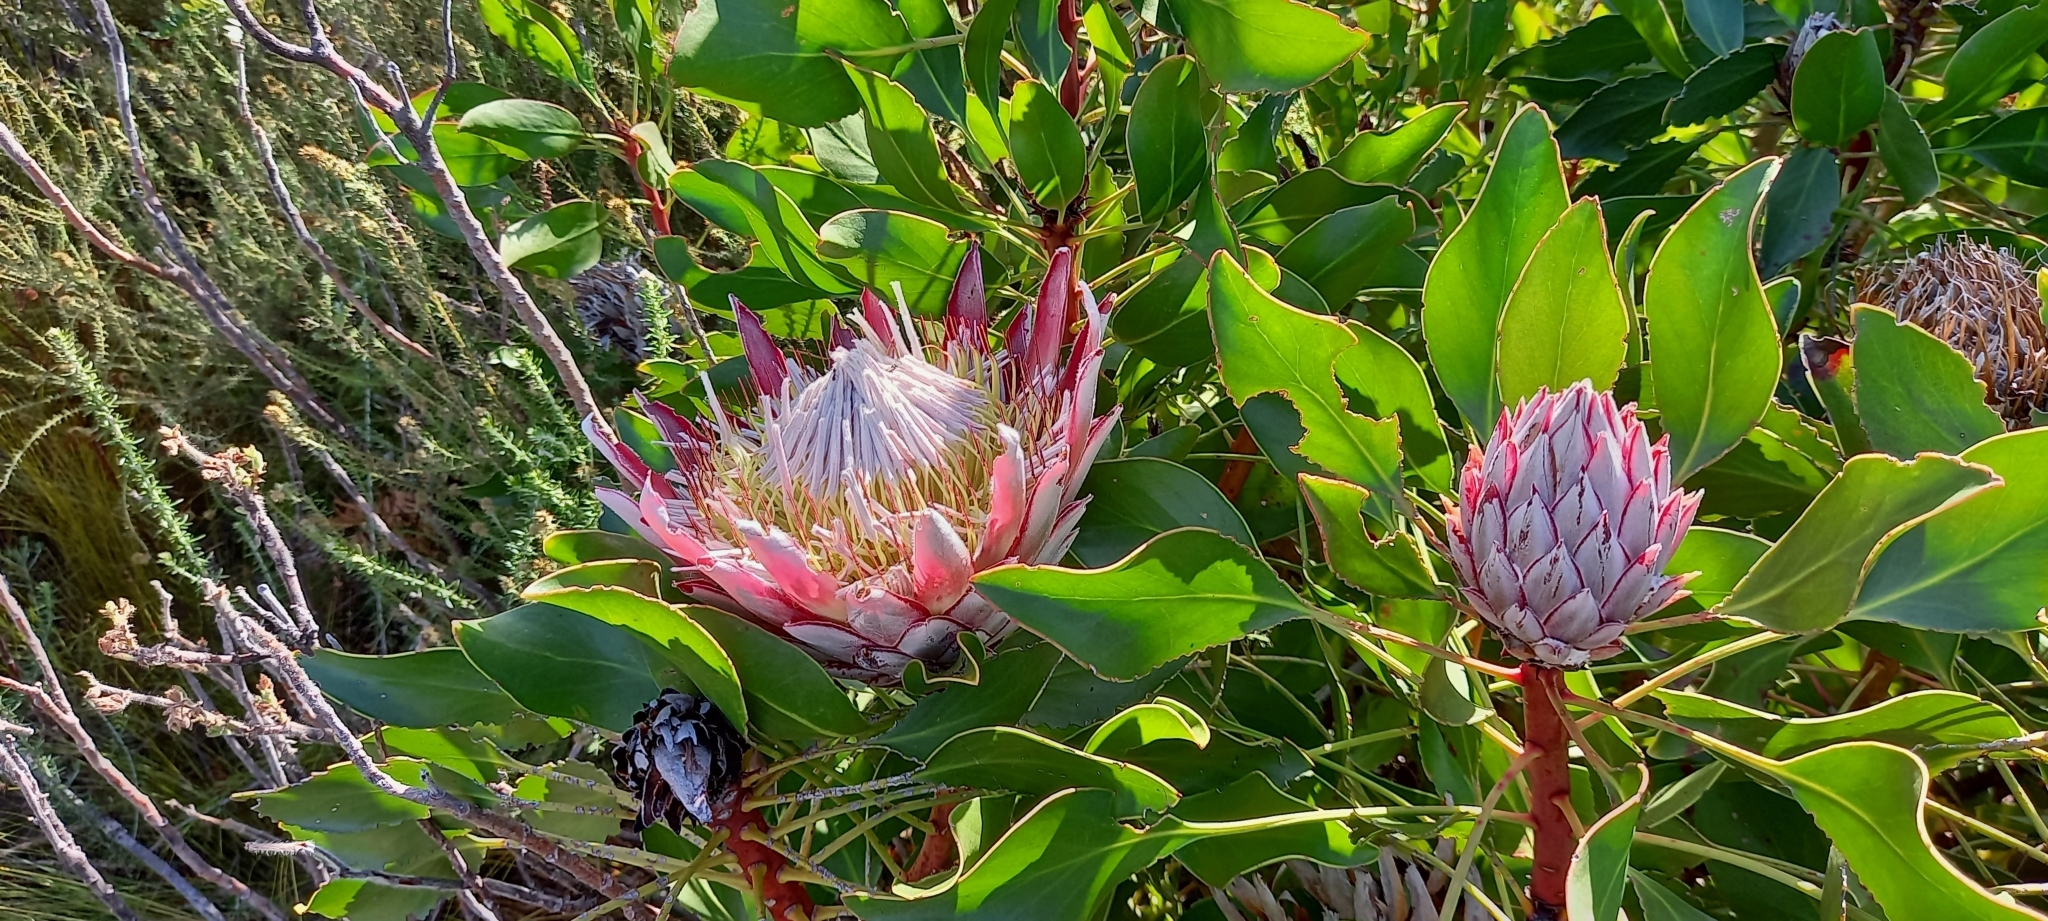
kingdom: Plantae
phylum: Tracheophyta
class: Magnoliopsida
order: Proteales
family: Proteaceae
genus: Protea
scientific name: Protea cynaroides
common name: King protea
